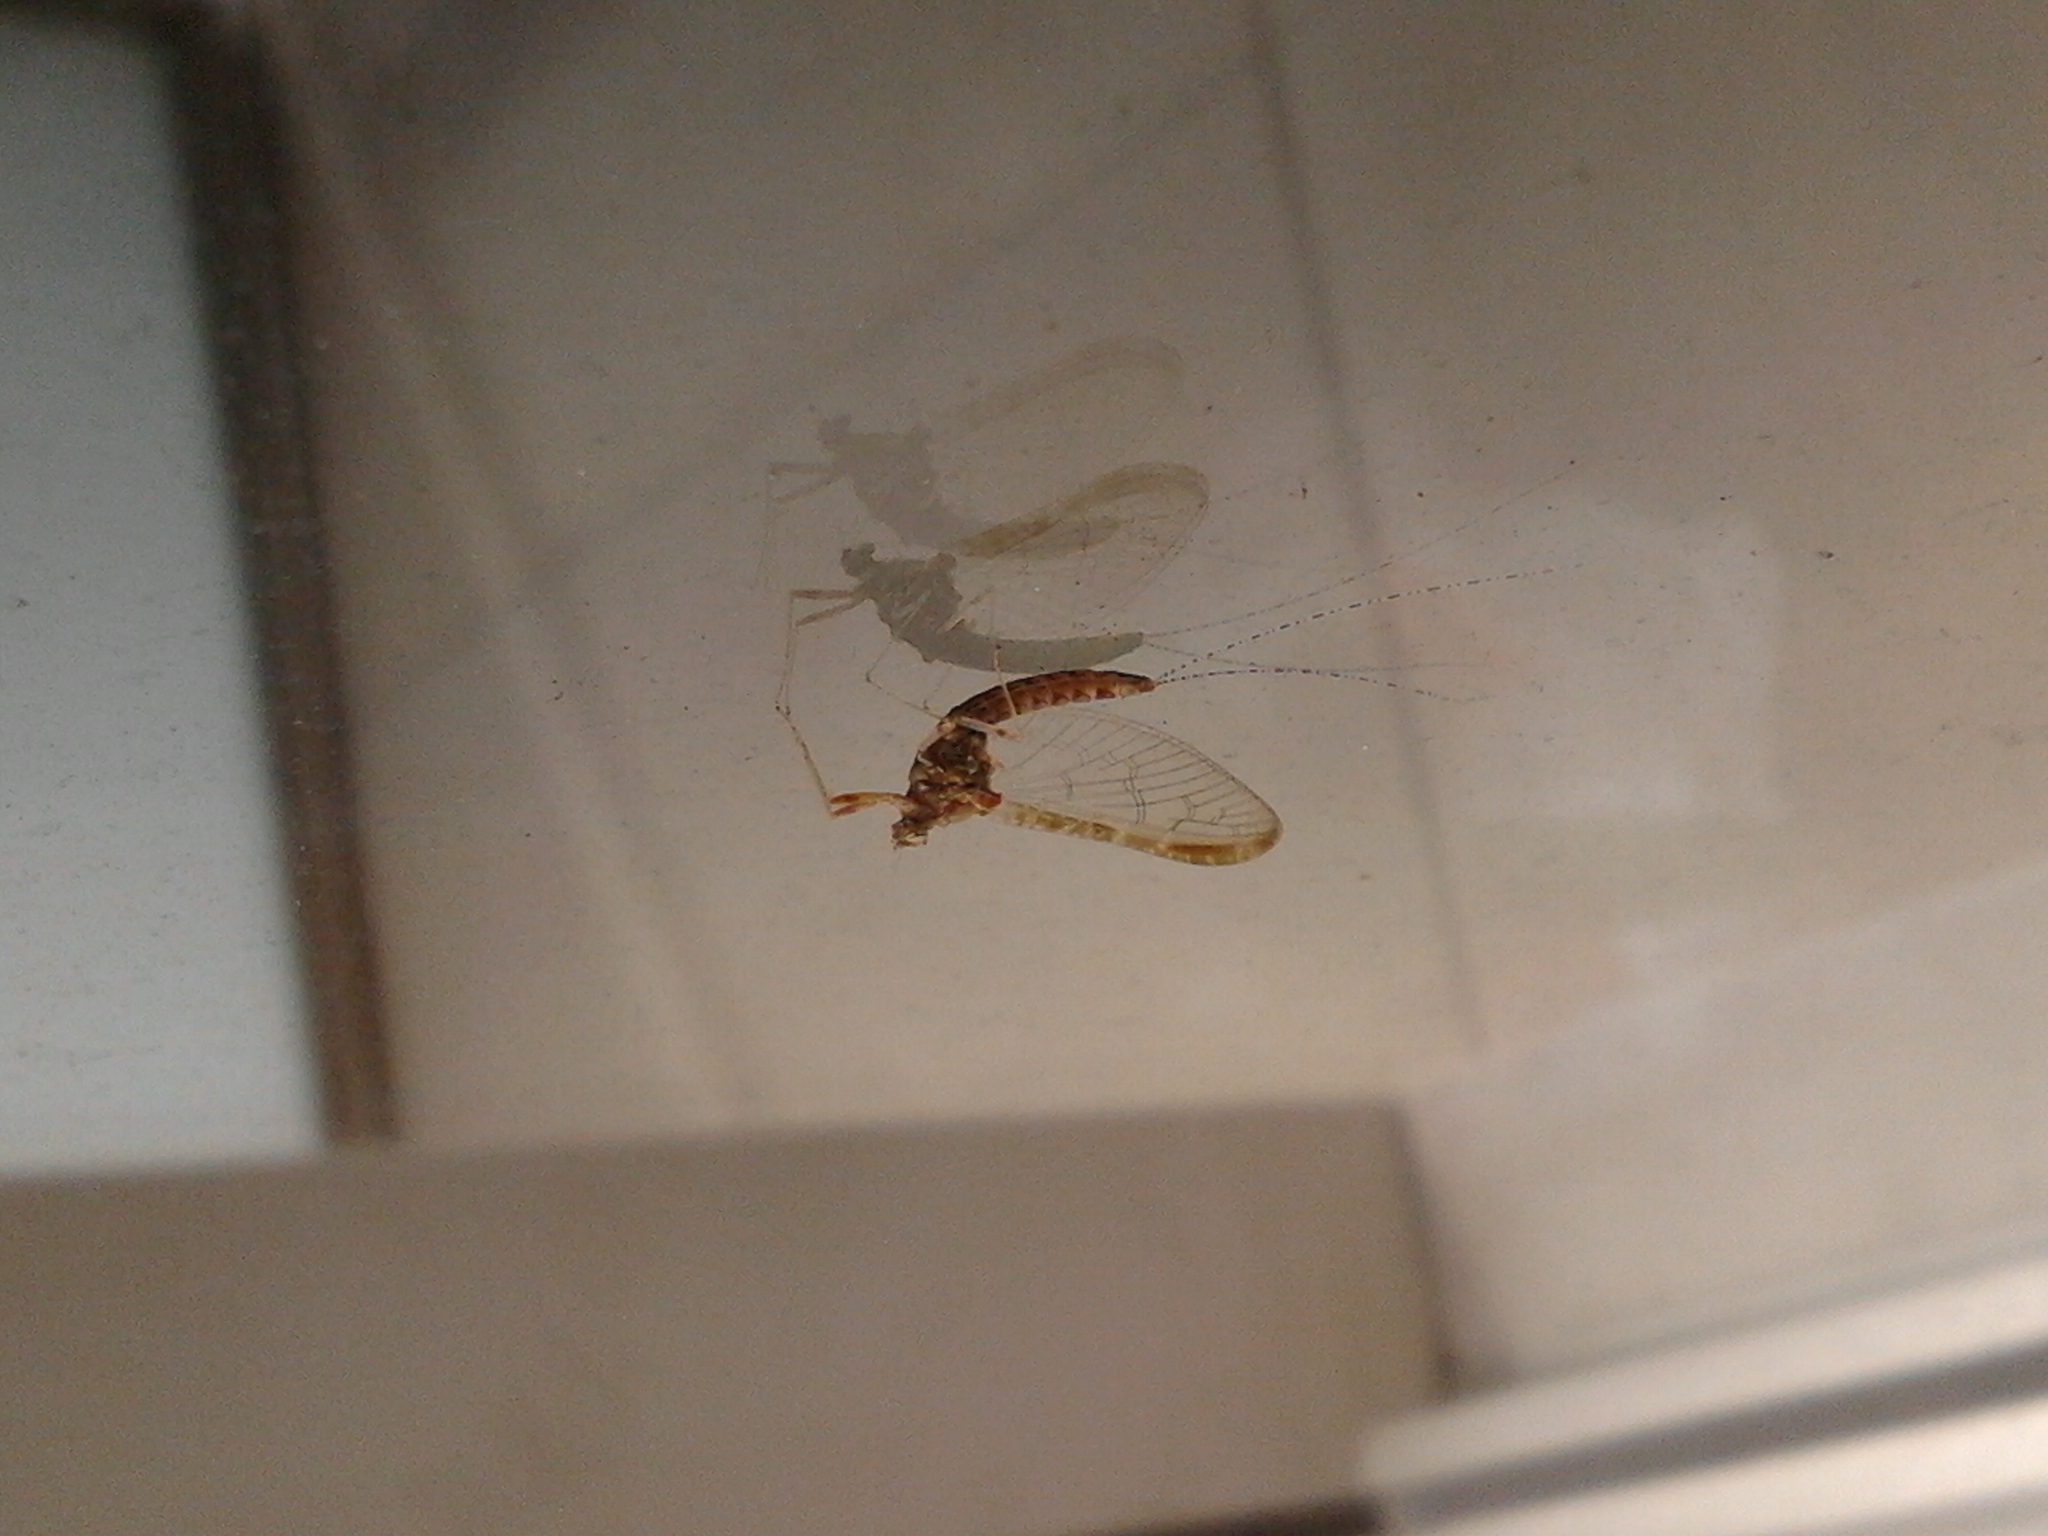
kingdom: Animalia
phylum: Arthropoda
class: Insecta
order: Ephemeroptera
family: Baetidae
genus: Cloeon
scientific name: Cloeon dipterum
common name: Pond olive
